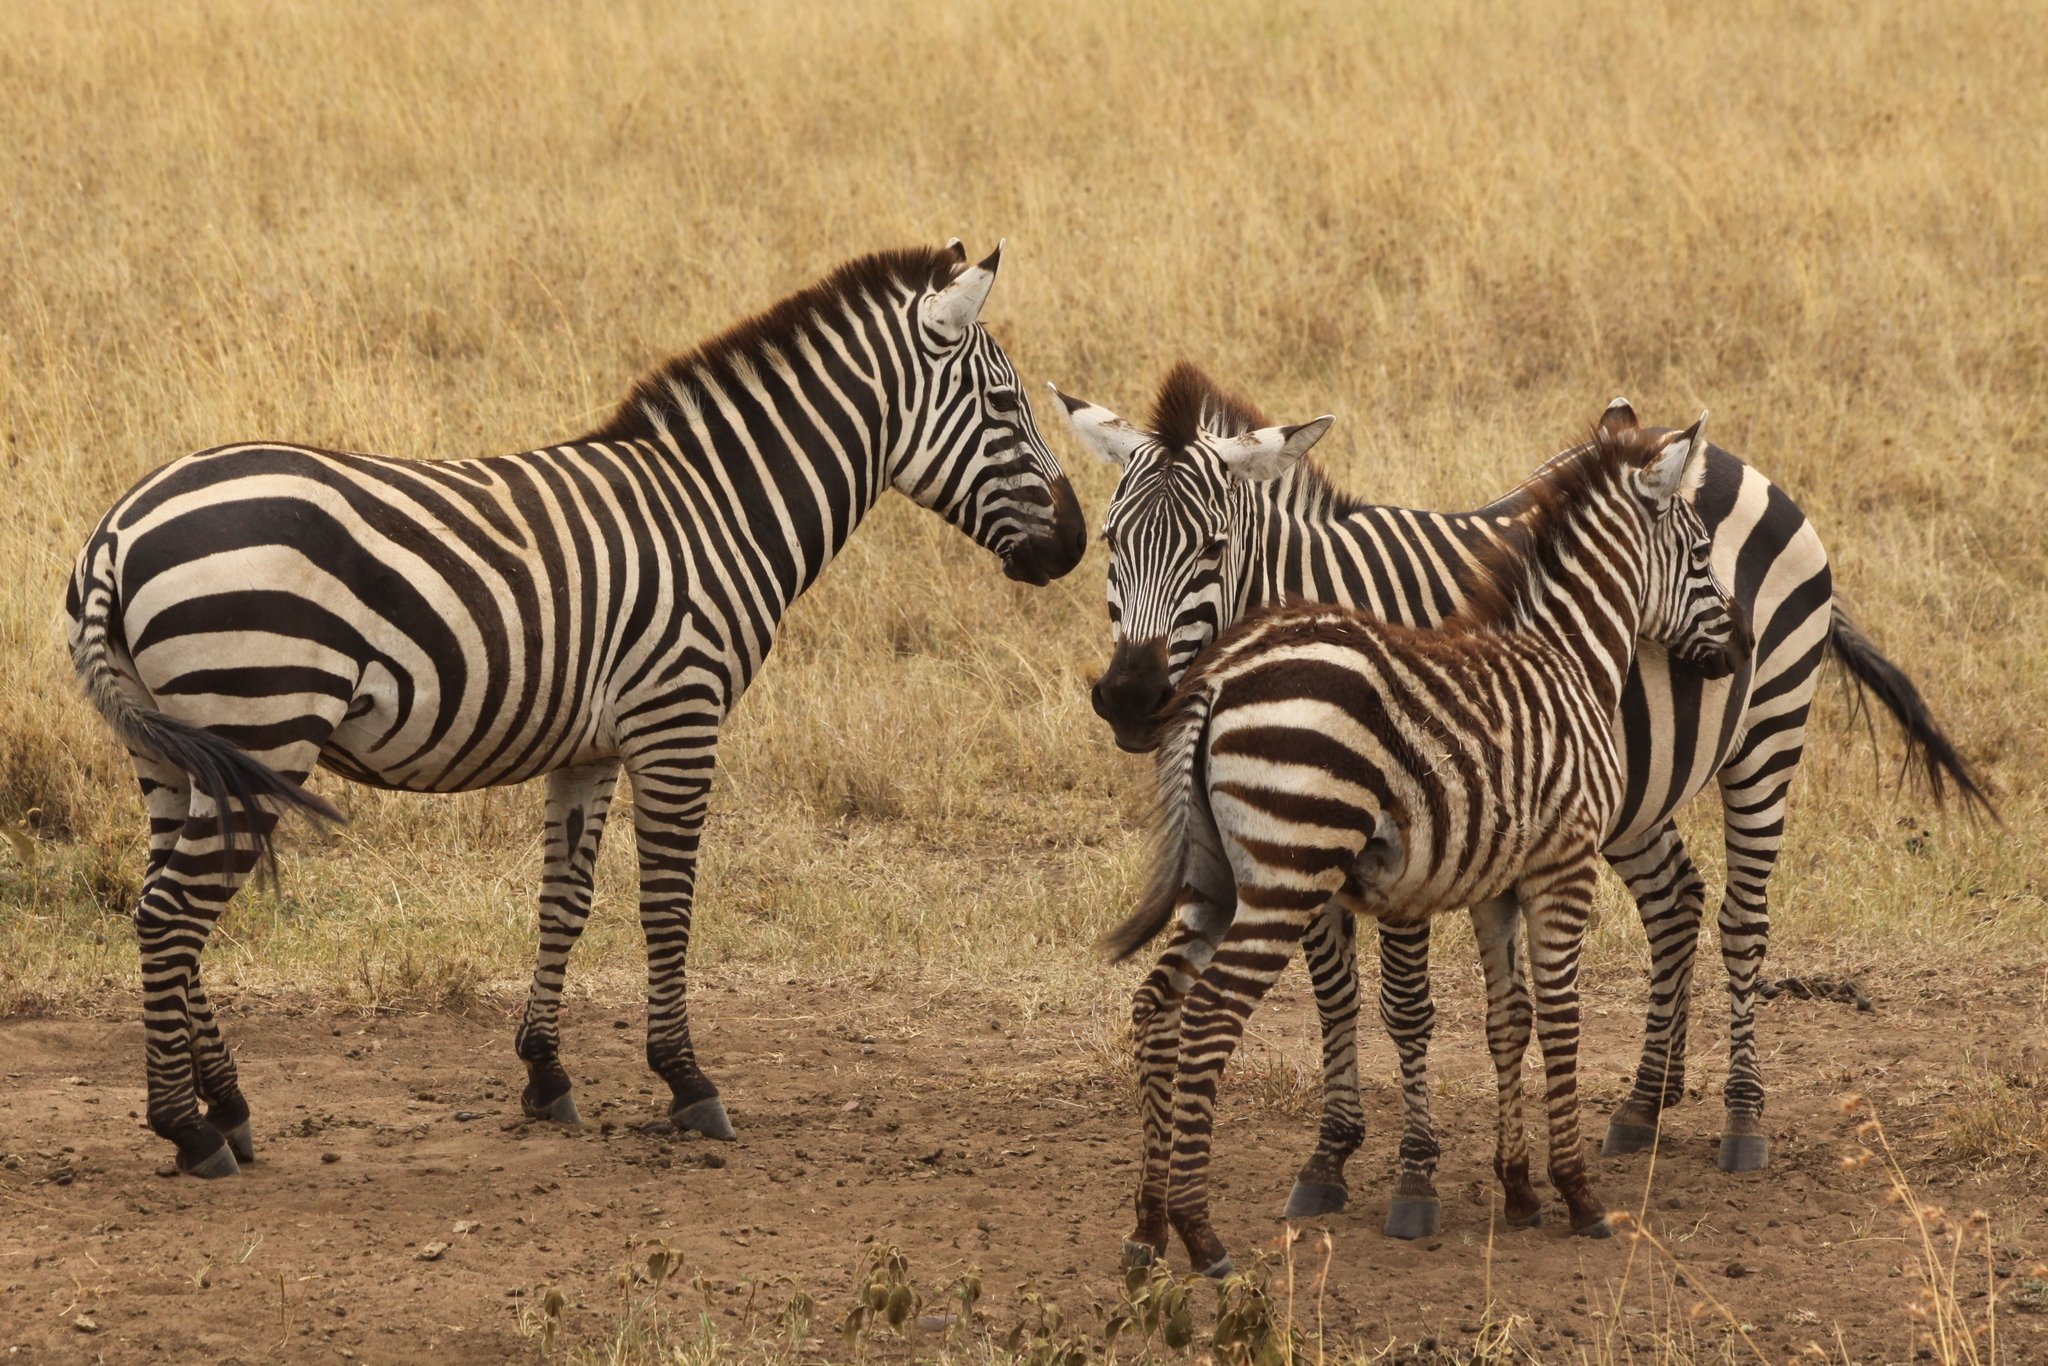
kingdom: Animalia
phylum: Chordata
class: Mammalia
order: Perissodactyla
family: Equidae
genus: Equus
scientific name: Equus quagga
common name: Plains zebra
